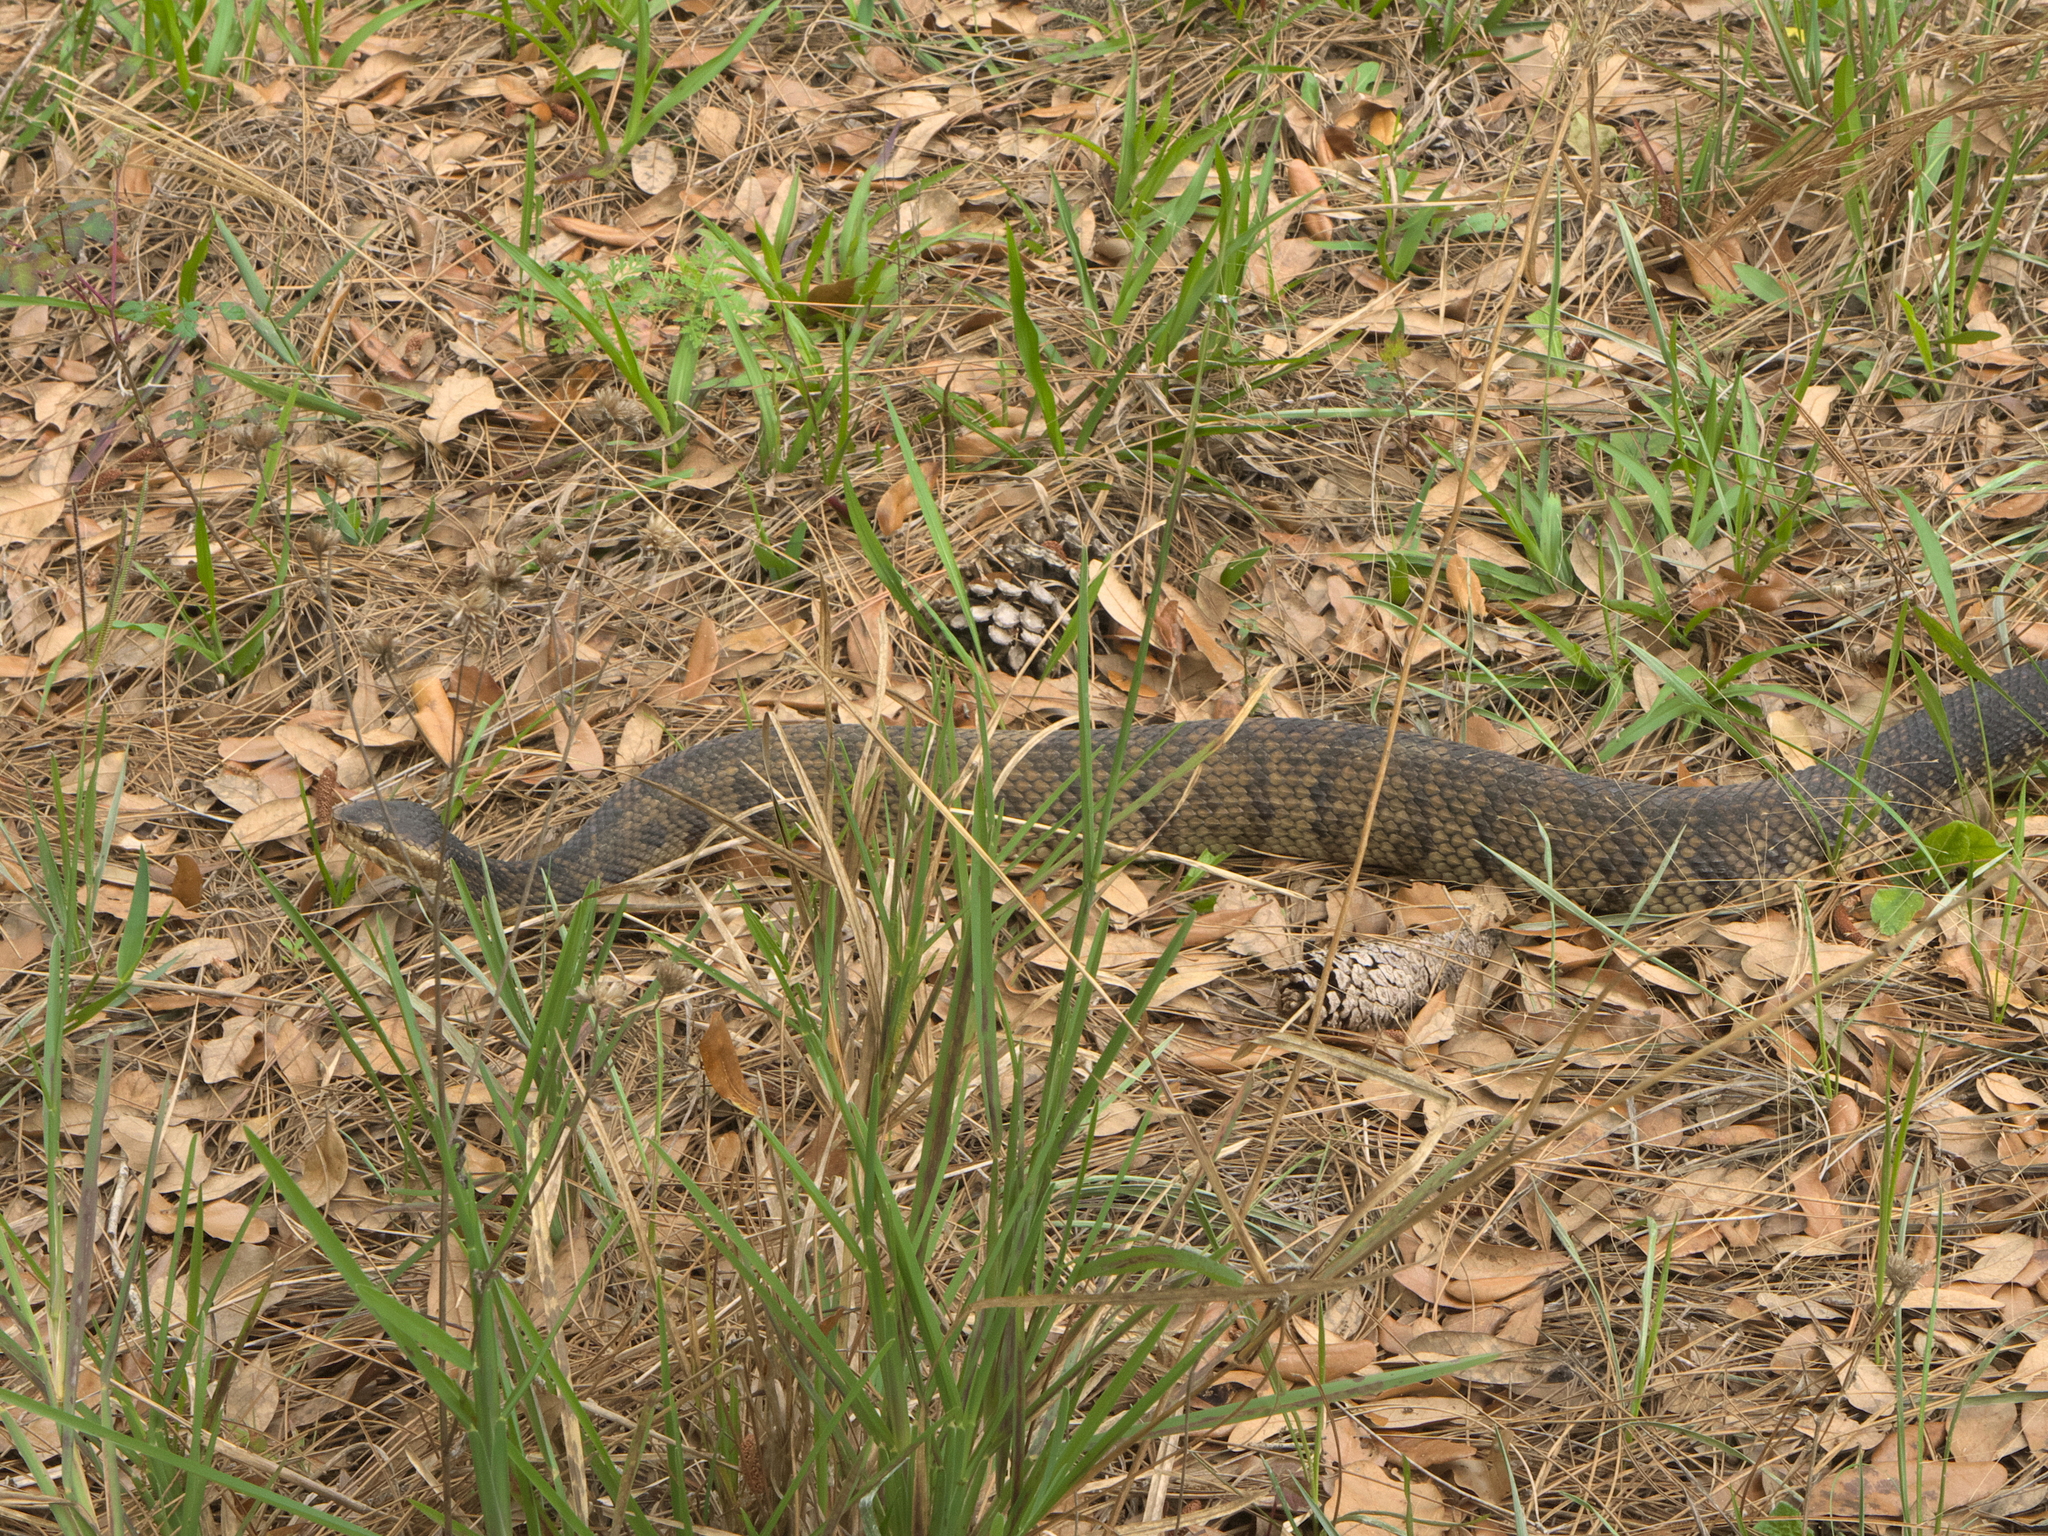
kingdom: Animalia
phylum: Chordata
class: Squamata
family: Viperidae
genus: Agkistrodon
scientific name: Agkistrodon conanti
